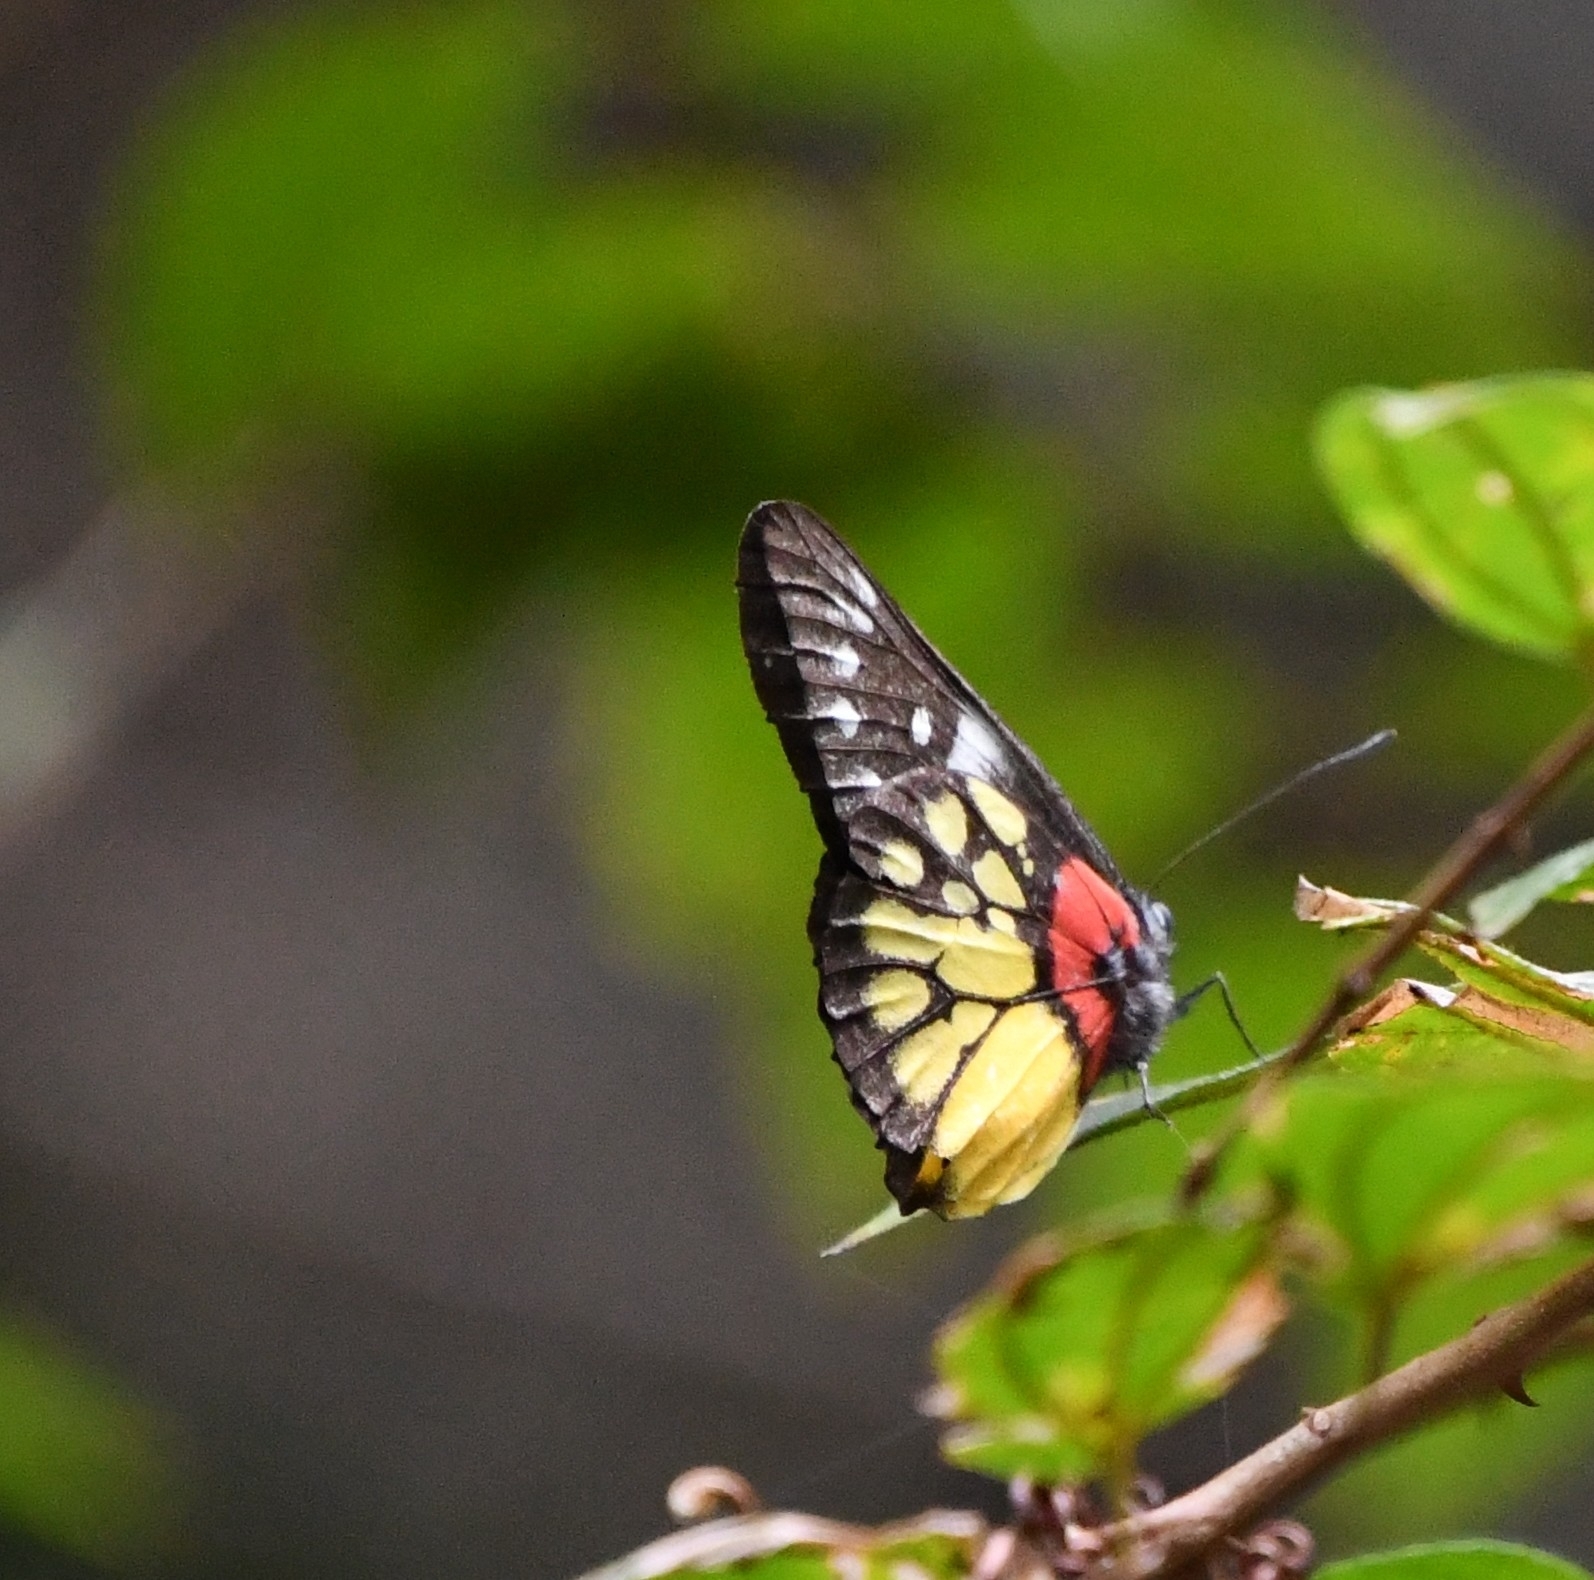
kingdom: Animalia
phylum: Arthropoda
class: Insecta
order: Lepidoptera
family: Pieridae
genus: Delias
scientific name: Delias pasithoe
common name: Red-base jezebel
